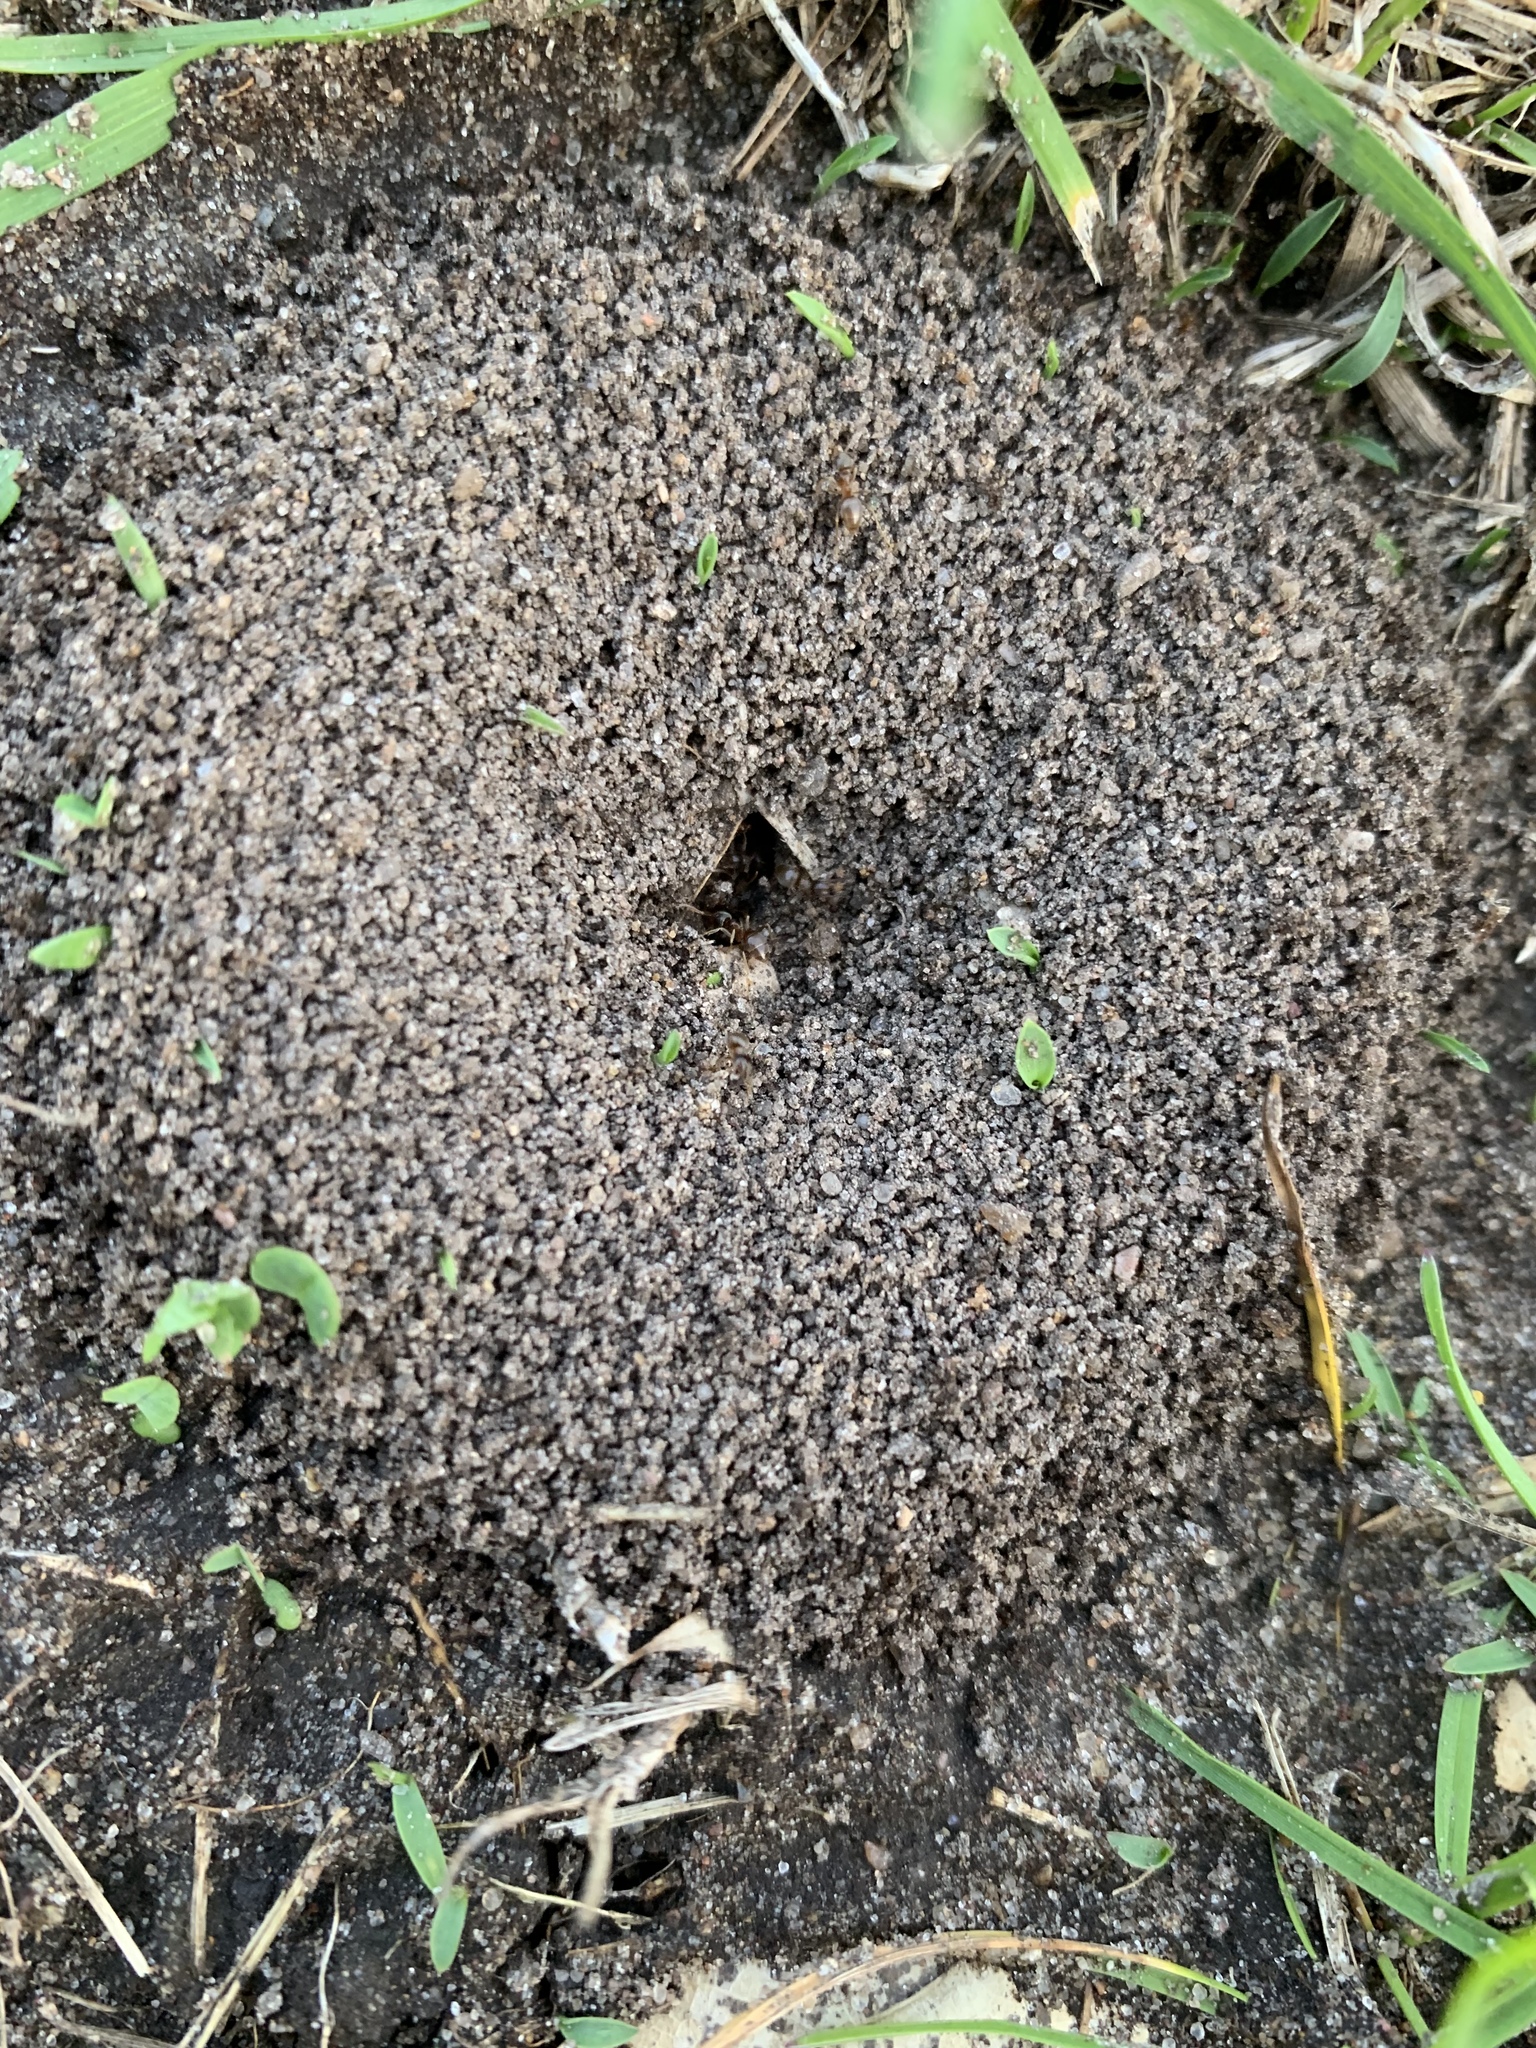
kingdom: Animalia
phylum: Arthropoda
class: Insecta
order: Hymenoptera
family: Formicidae
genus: Lasius
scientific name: Lasius neoniger
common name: Turfgrass ant
